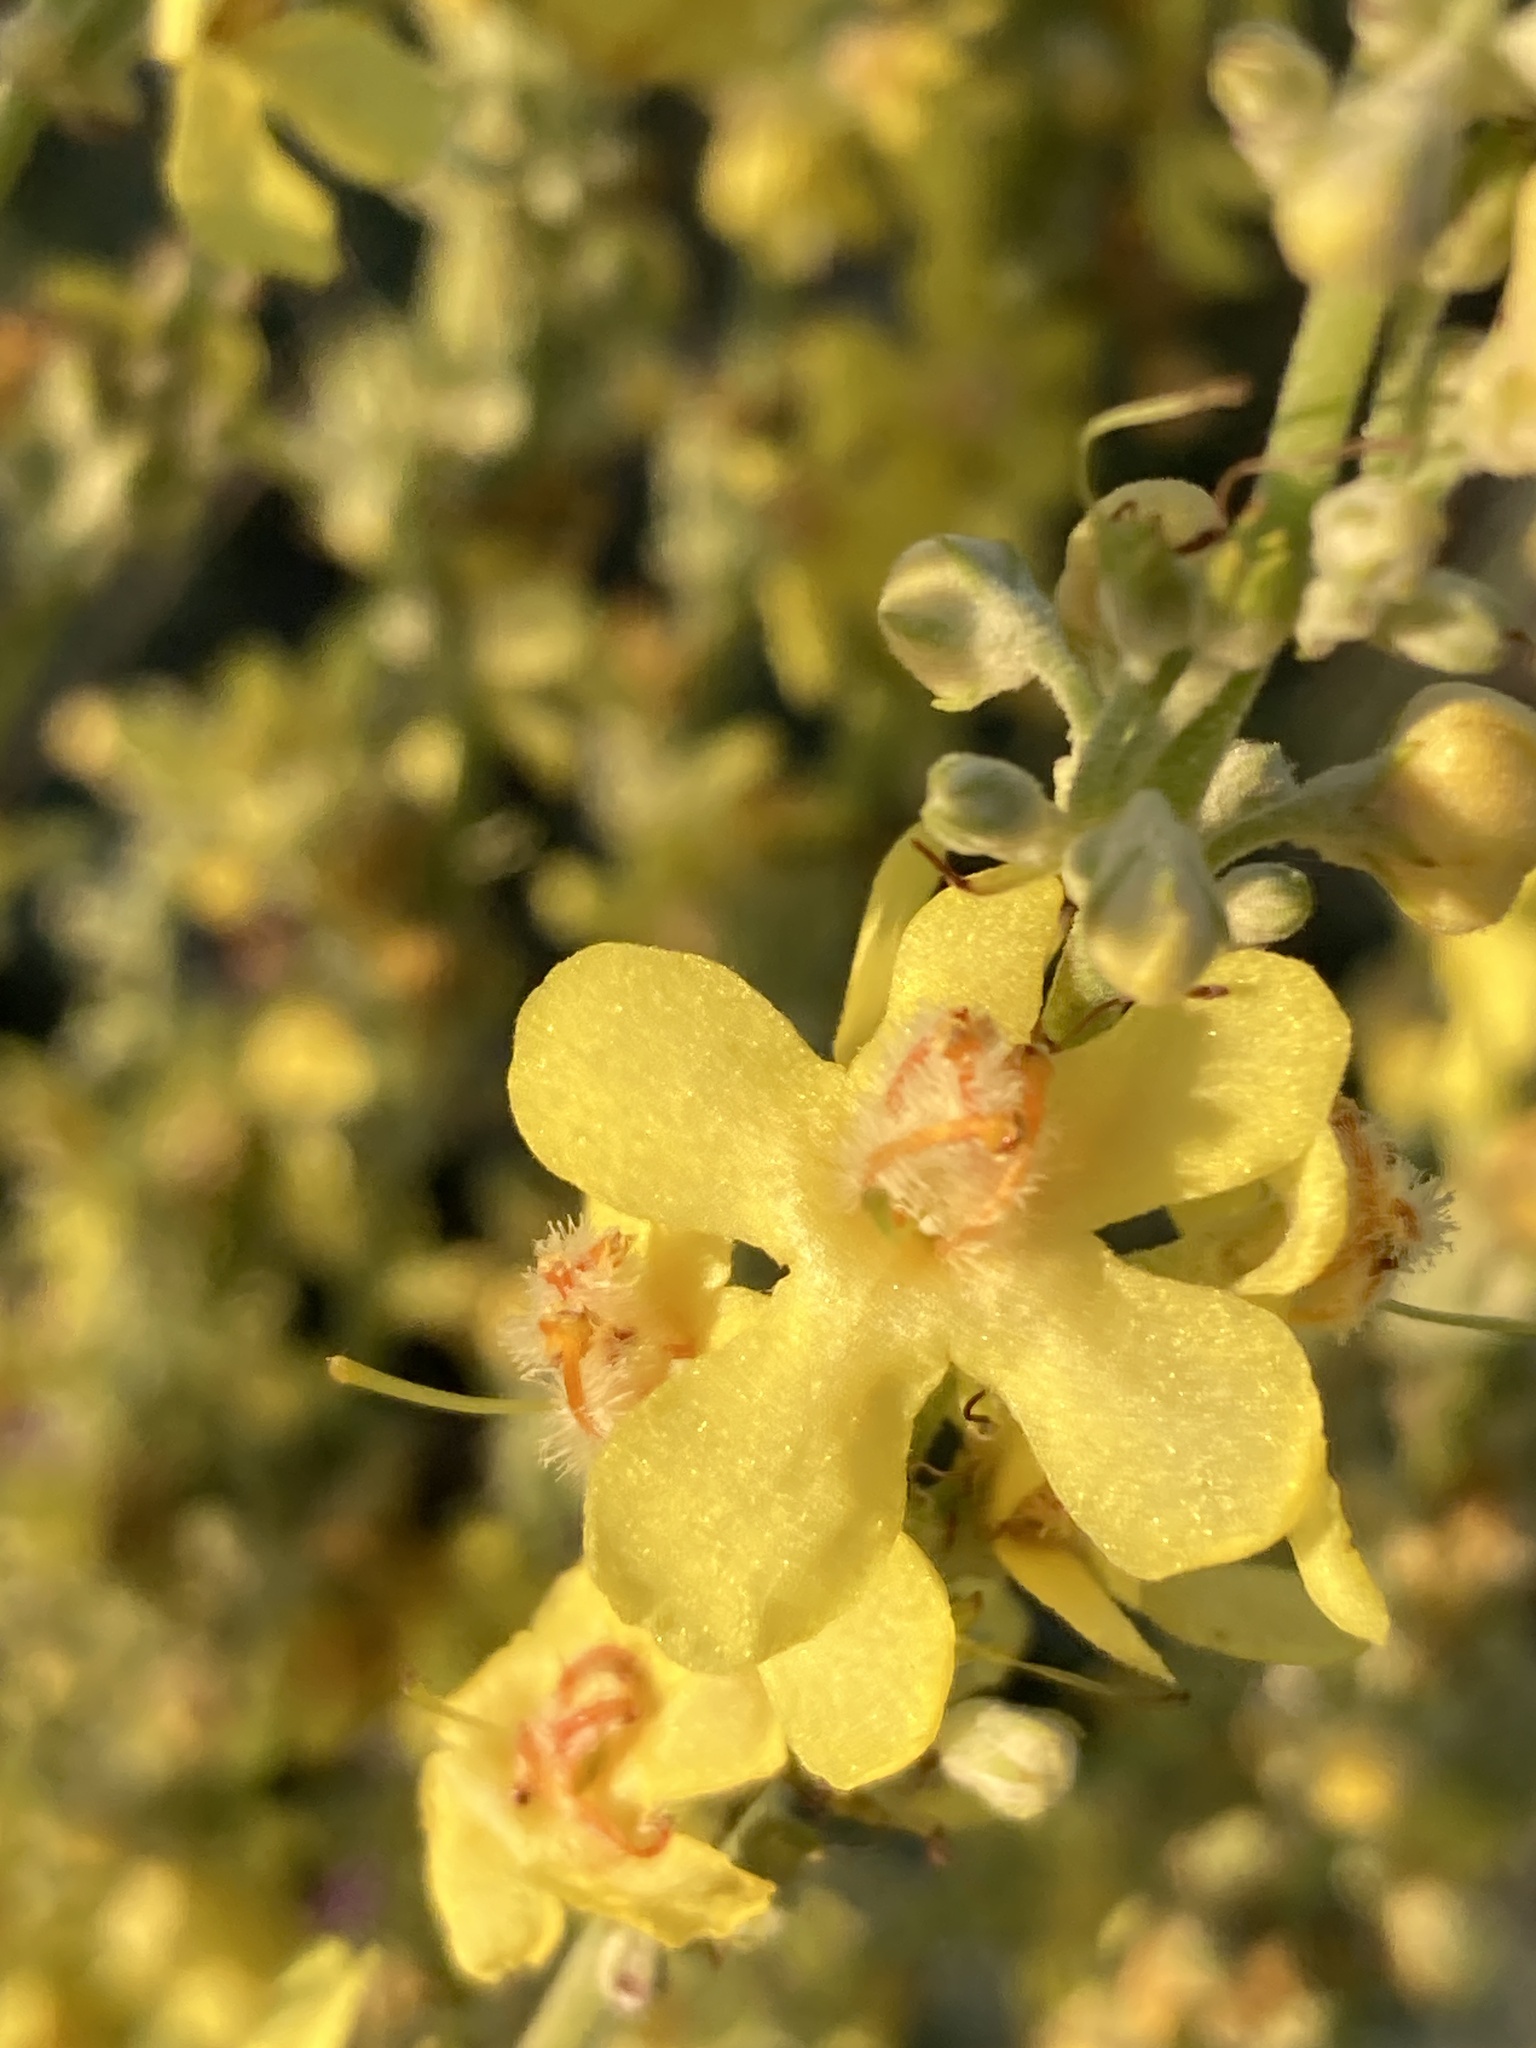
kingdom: Plantae
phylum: Tracheophyta
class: Magnoliopsida
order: Lamiales
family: Scrophulariaceae
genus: Verbascum
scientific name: Verbascum lychnitis
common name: White mullein
